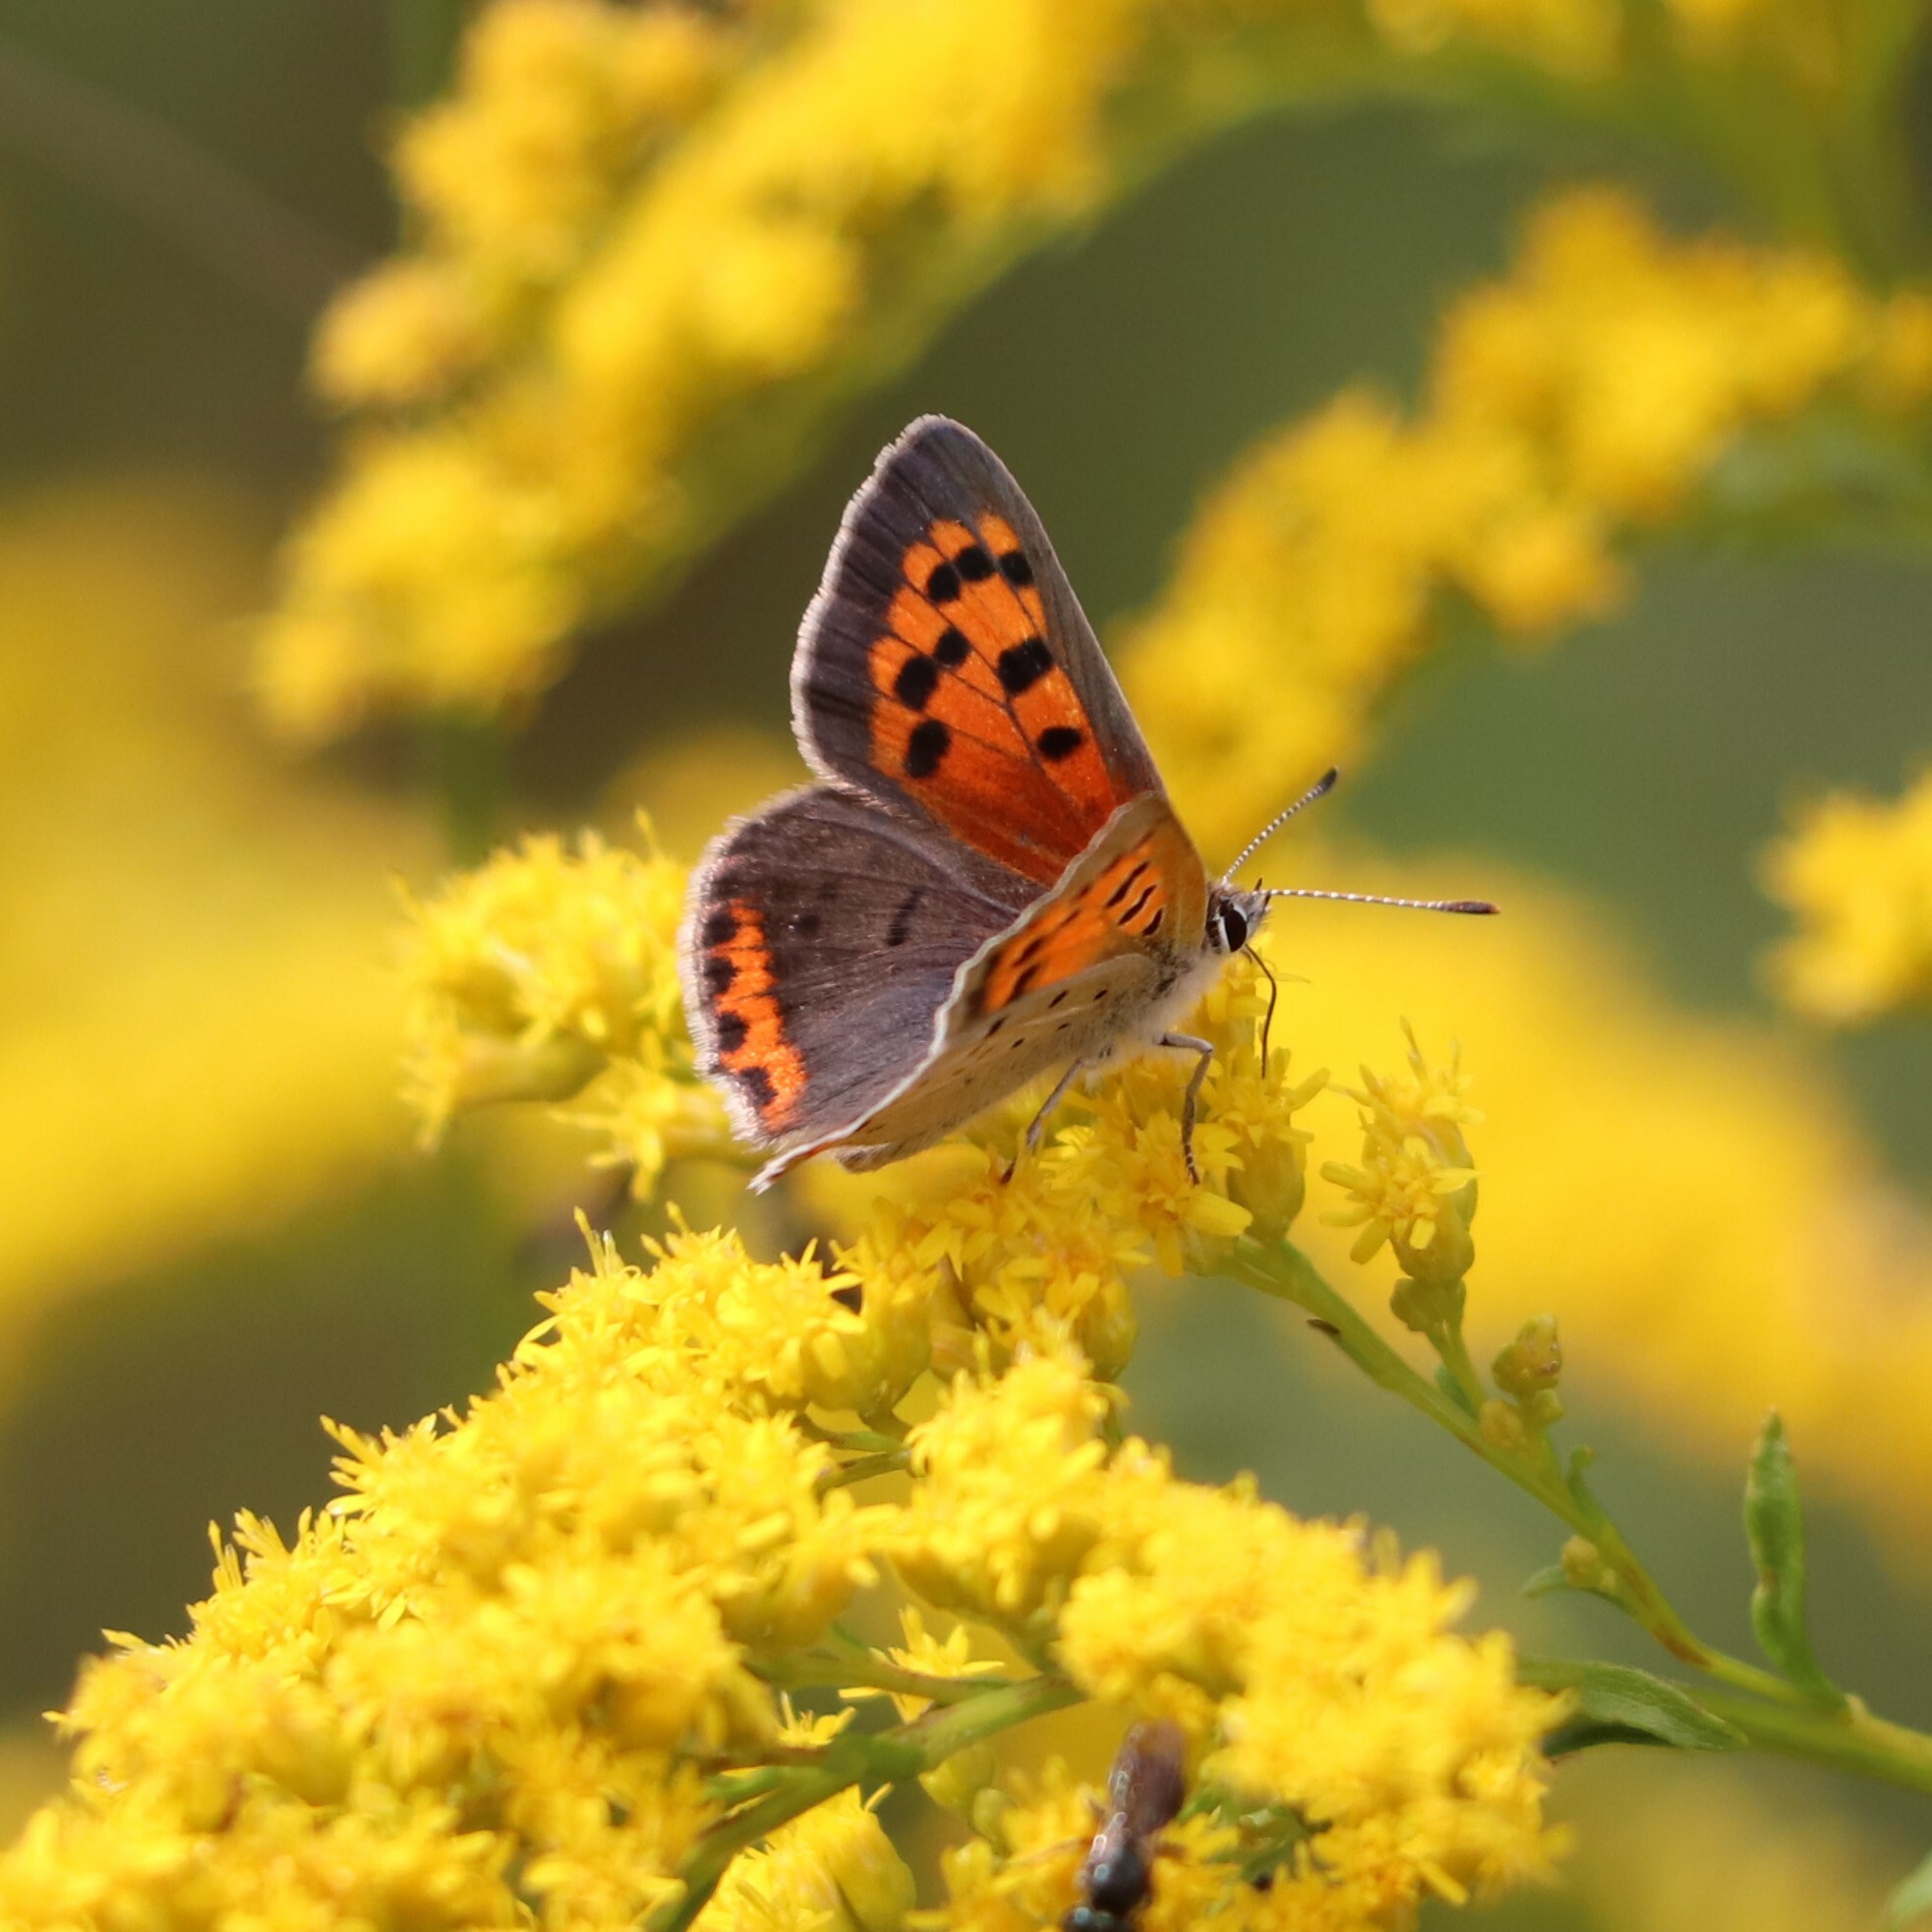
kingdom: Animalia
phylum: Arthropoda
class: Insecta
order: Lepidoptera
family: Lycaenidae
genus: Lycaena
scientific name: Lycaena hypophlaeas
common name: American copper
